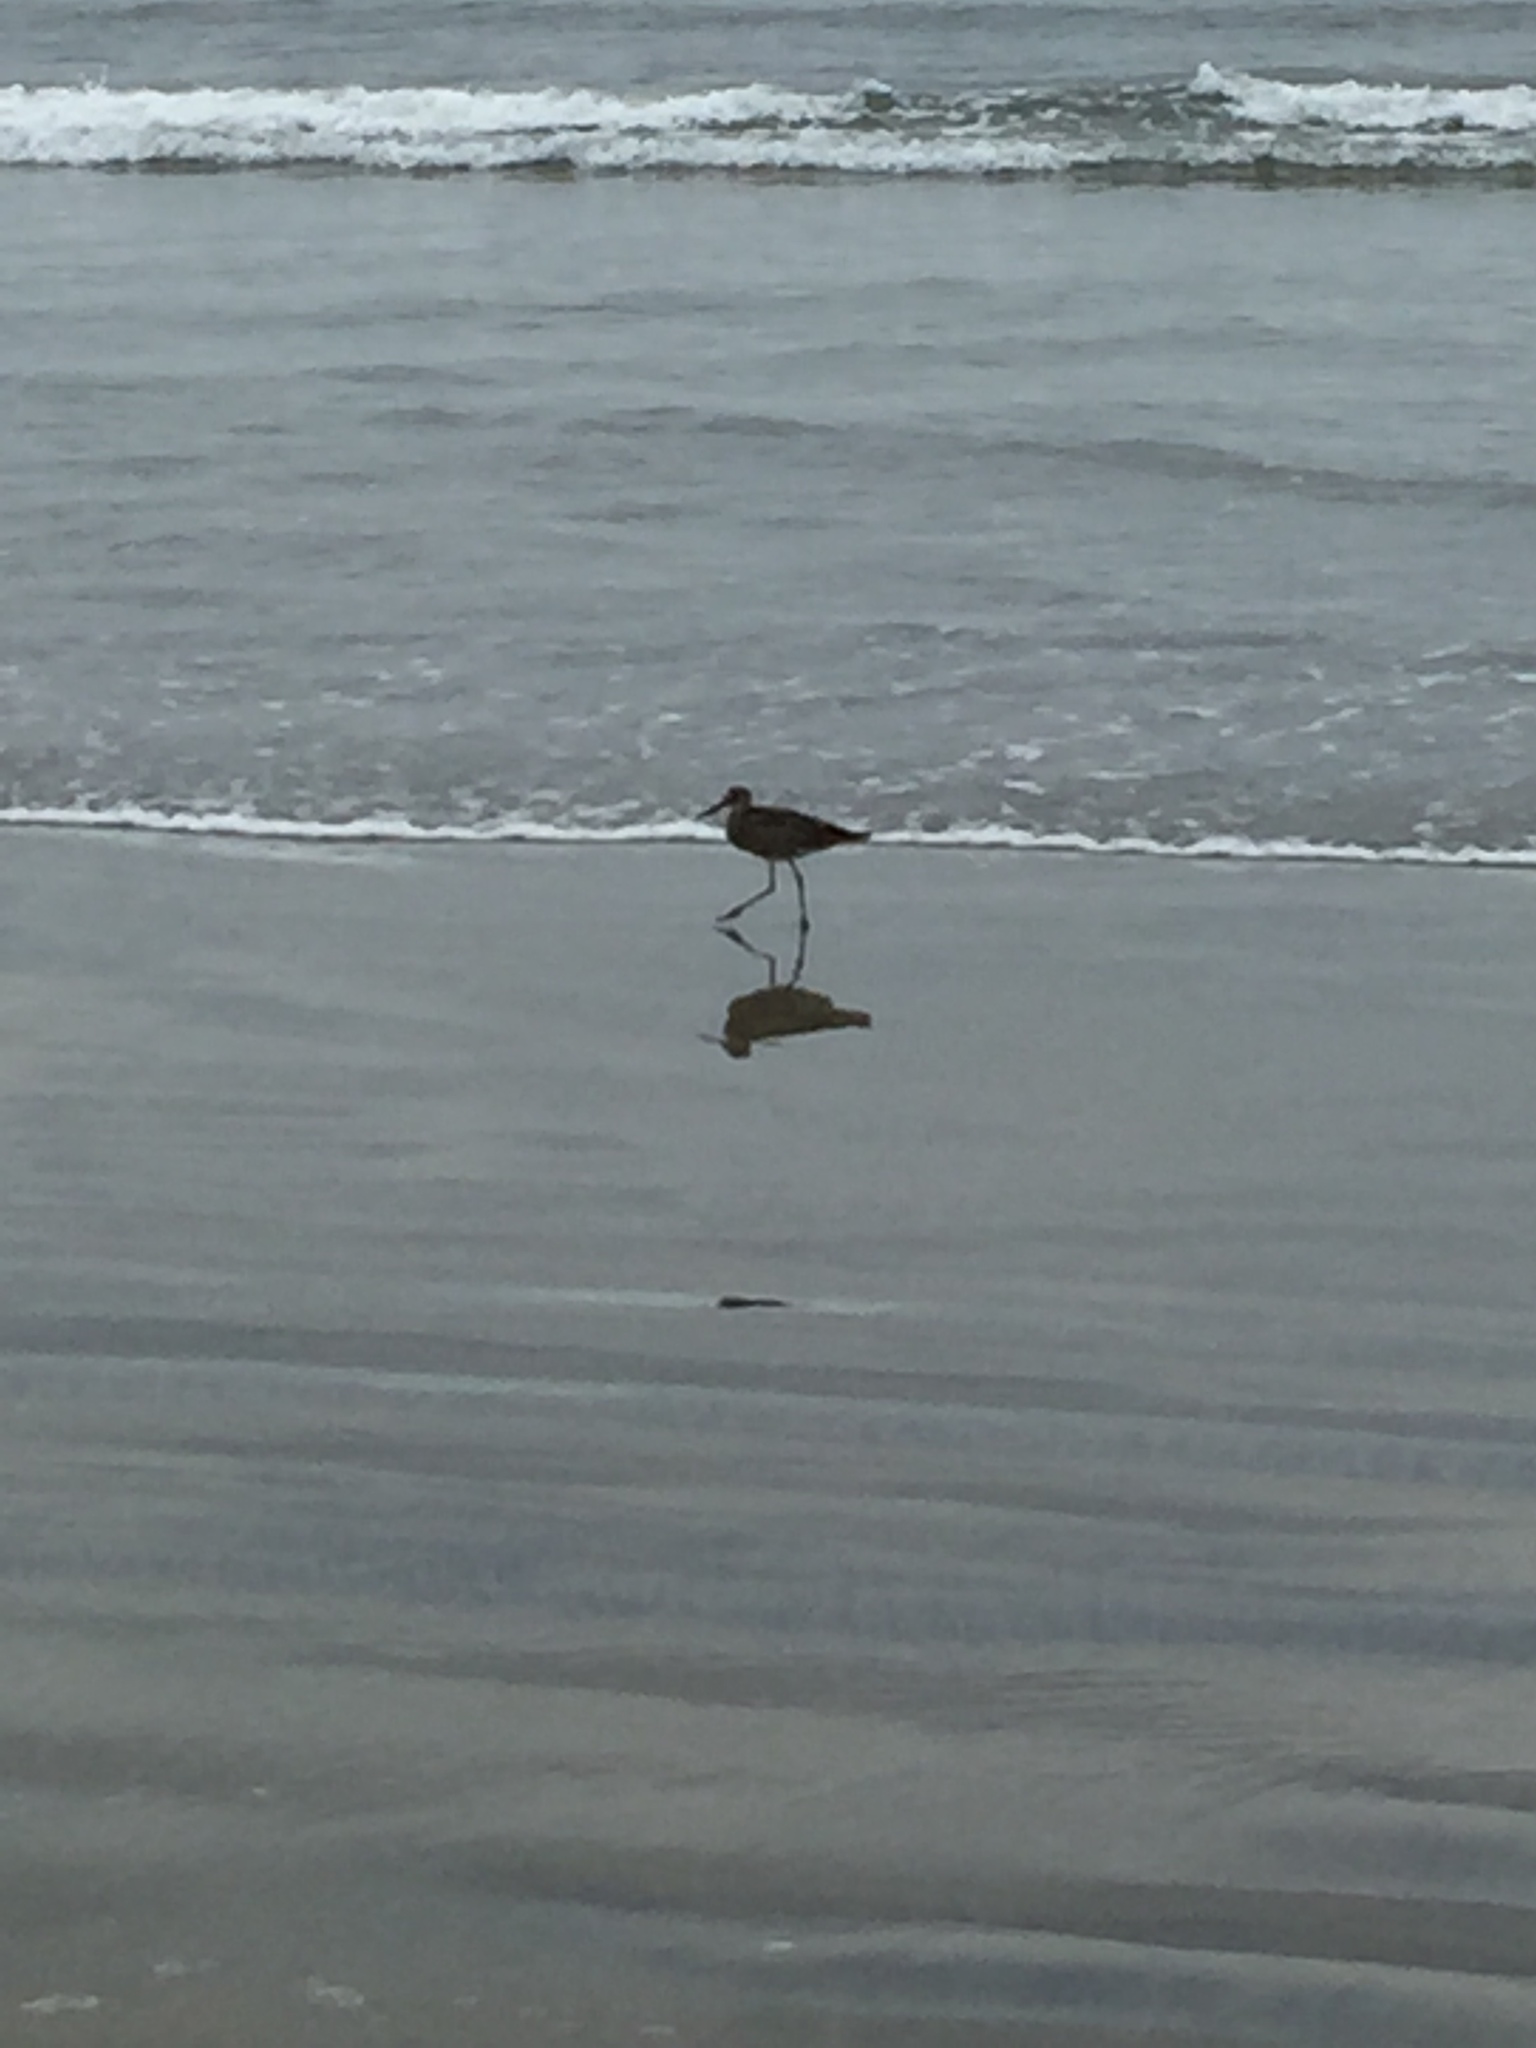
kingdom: Animalia
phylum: Chordata
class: Aves
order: Charadriiformes
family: Scolopacidae
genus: Tringa
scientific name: Tringa semipalmata
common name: Willet
